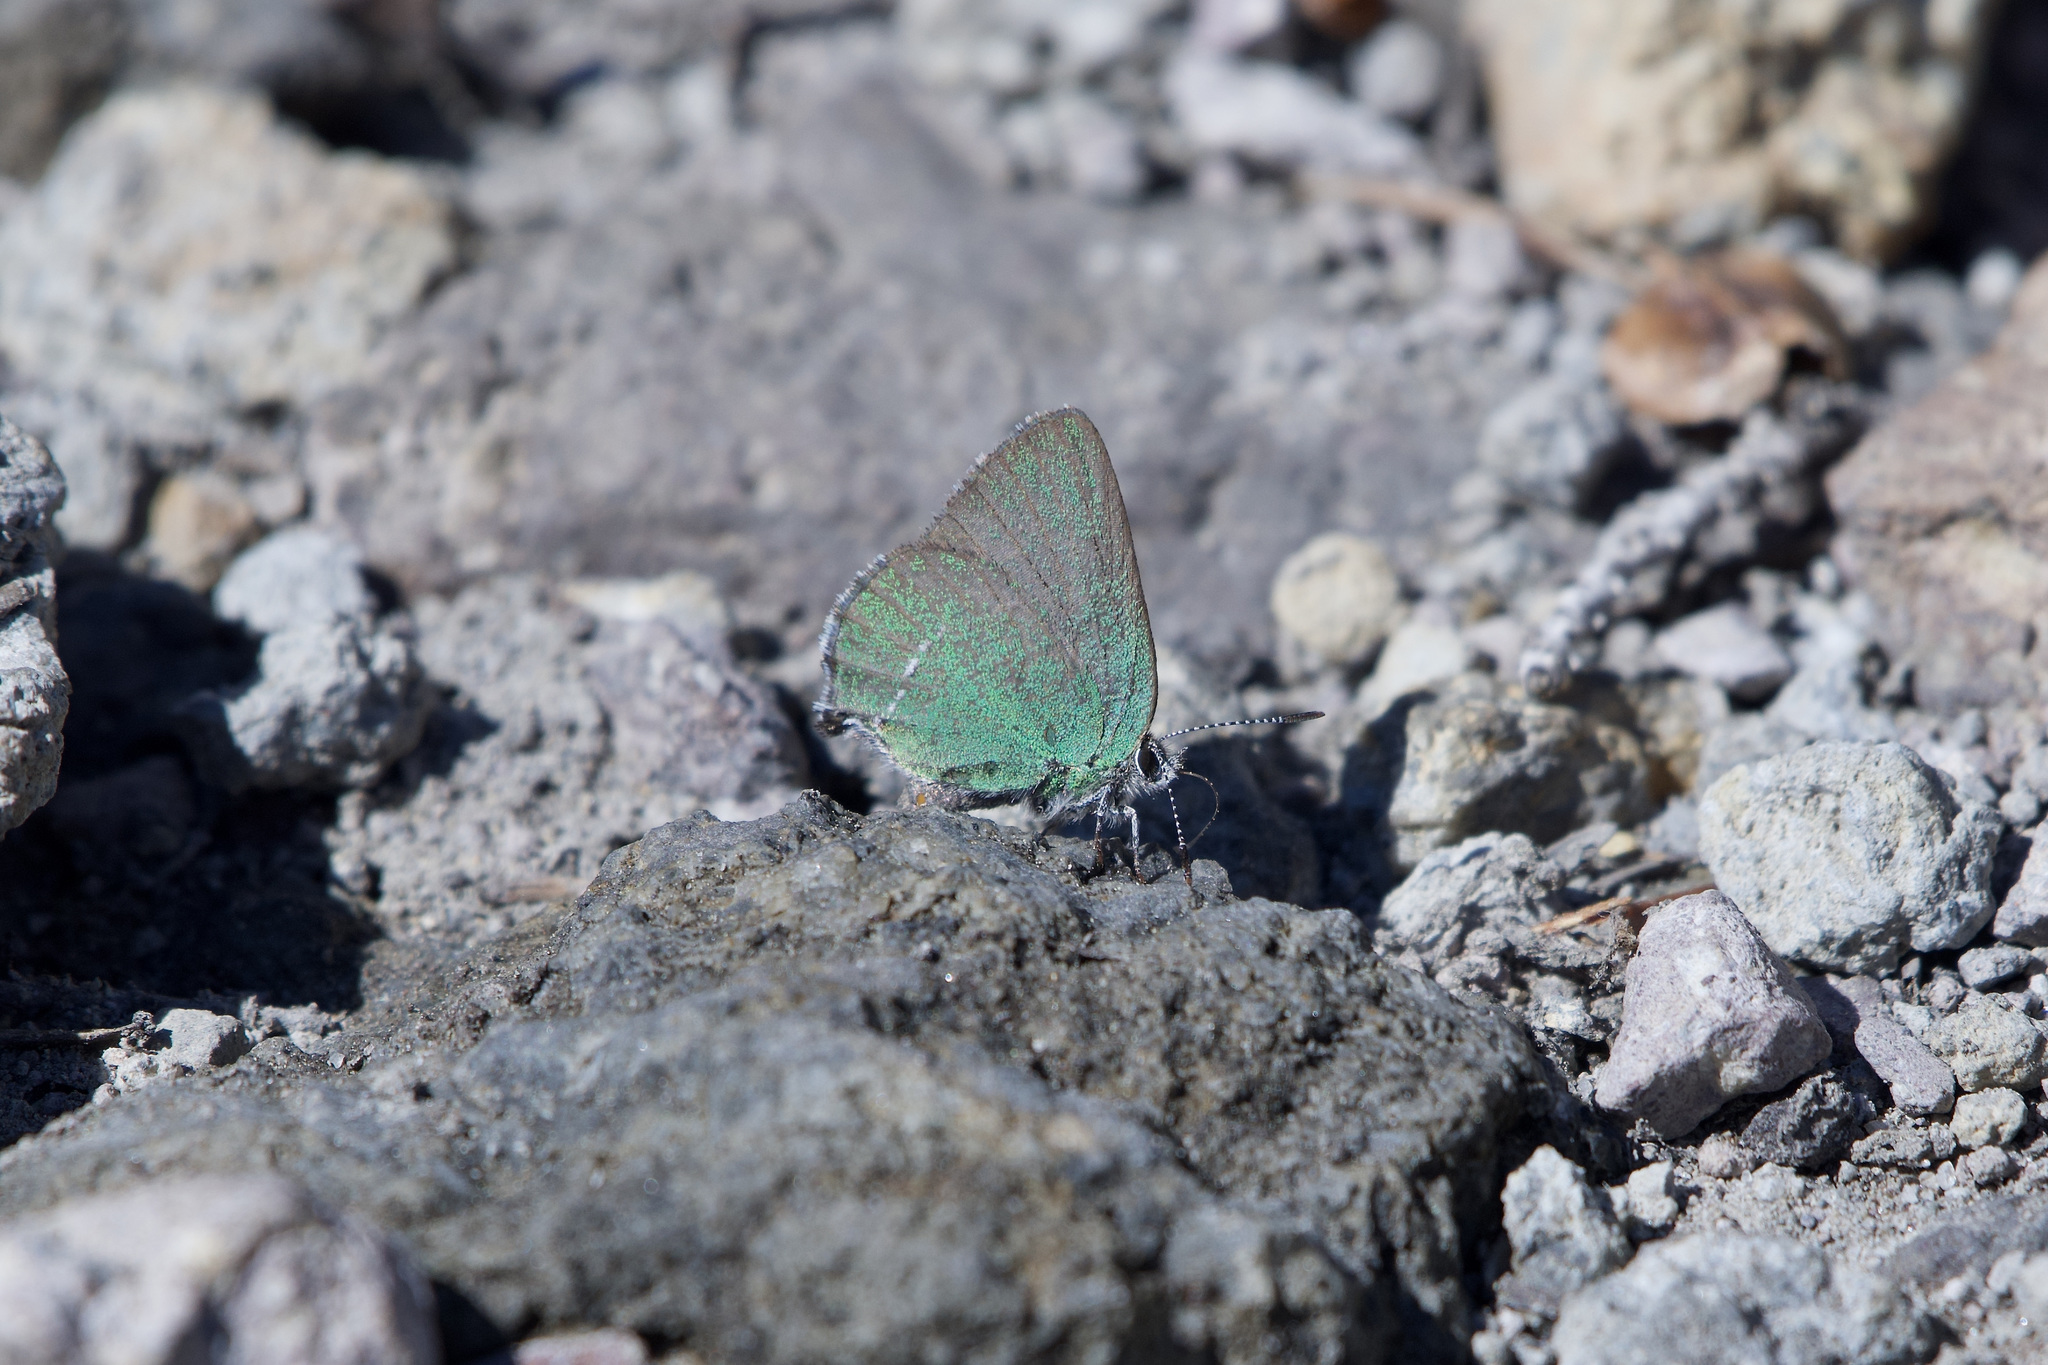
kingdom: Animalia
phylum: Arthropoda
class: Insecta
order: Lepidoptera
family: Lycaenidae
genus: Thecla
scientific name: Thecla sheridanii
